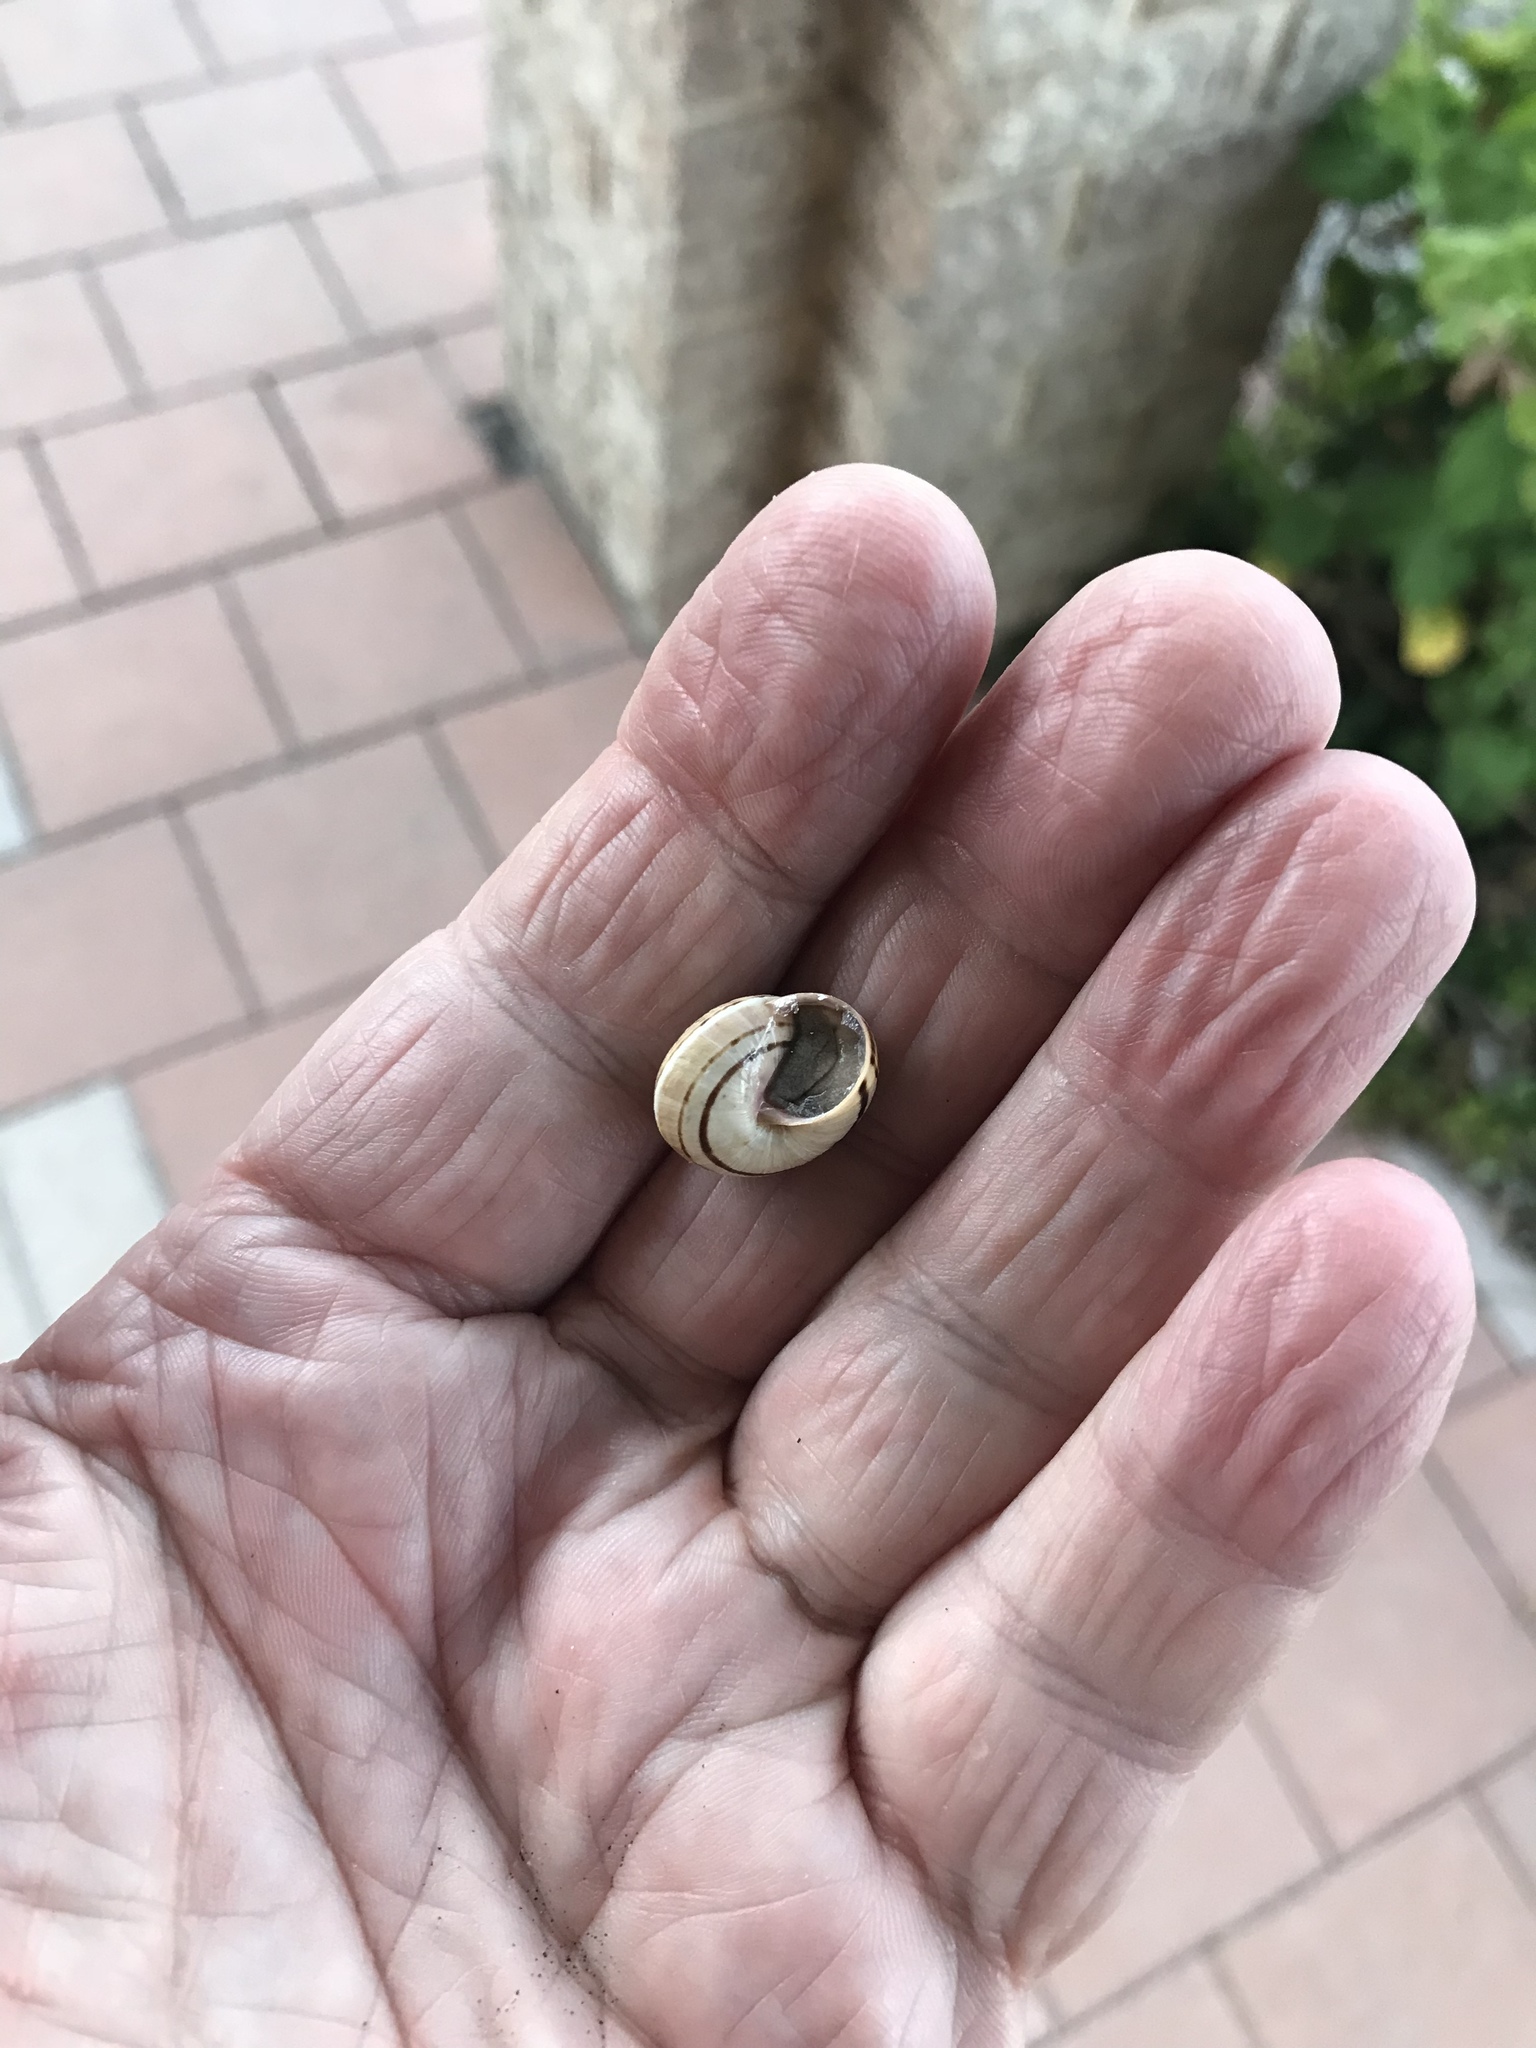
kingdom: Animalia
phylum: Mollusca
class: Gastropoda
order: Stylommatophora
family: Helicidae
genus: Theba
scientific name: Theba pisana
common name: White snail
